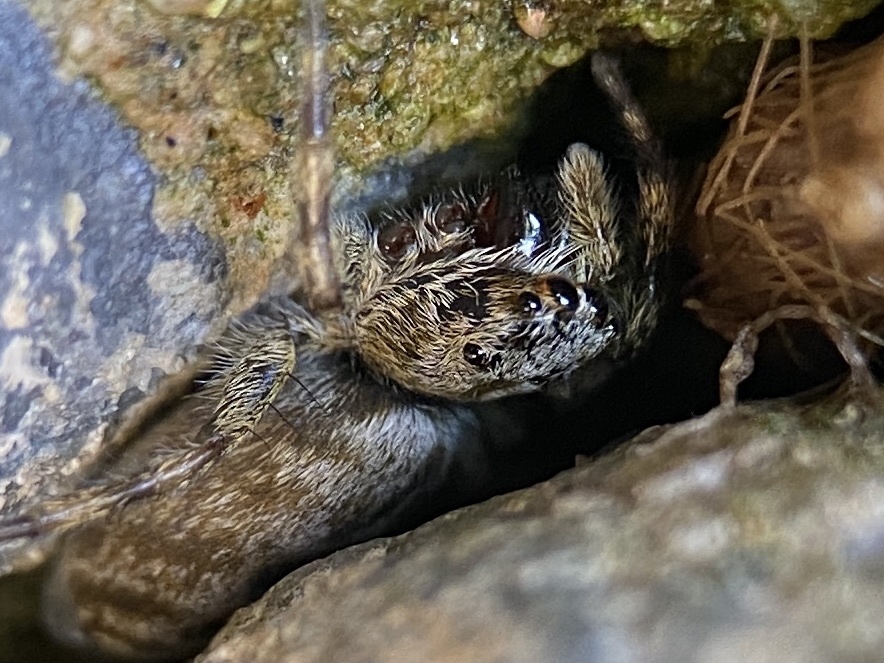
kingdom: Animalia
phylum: Arthropoda
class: Arachnida
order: Araneae
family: Salticidae
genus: Hakka
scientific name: Hakka himeshimensis
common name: Jumping spider
